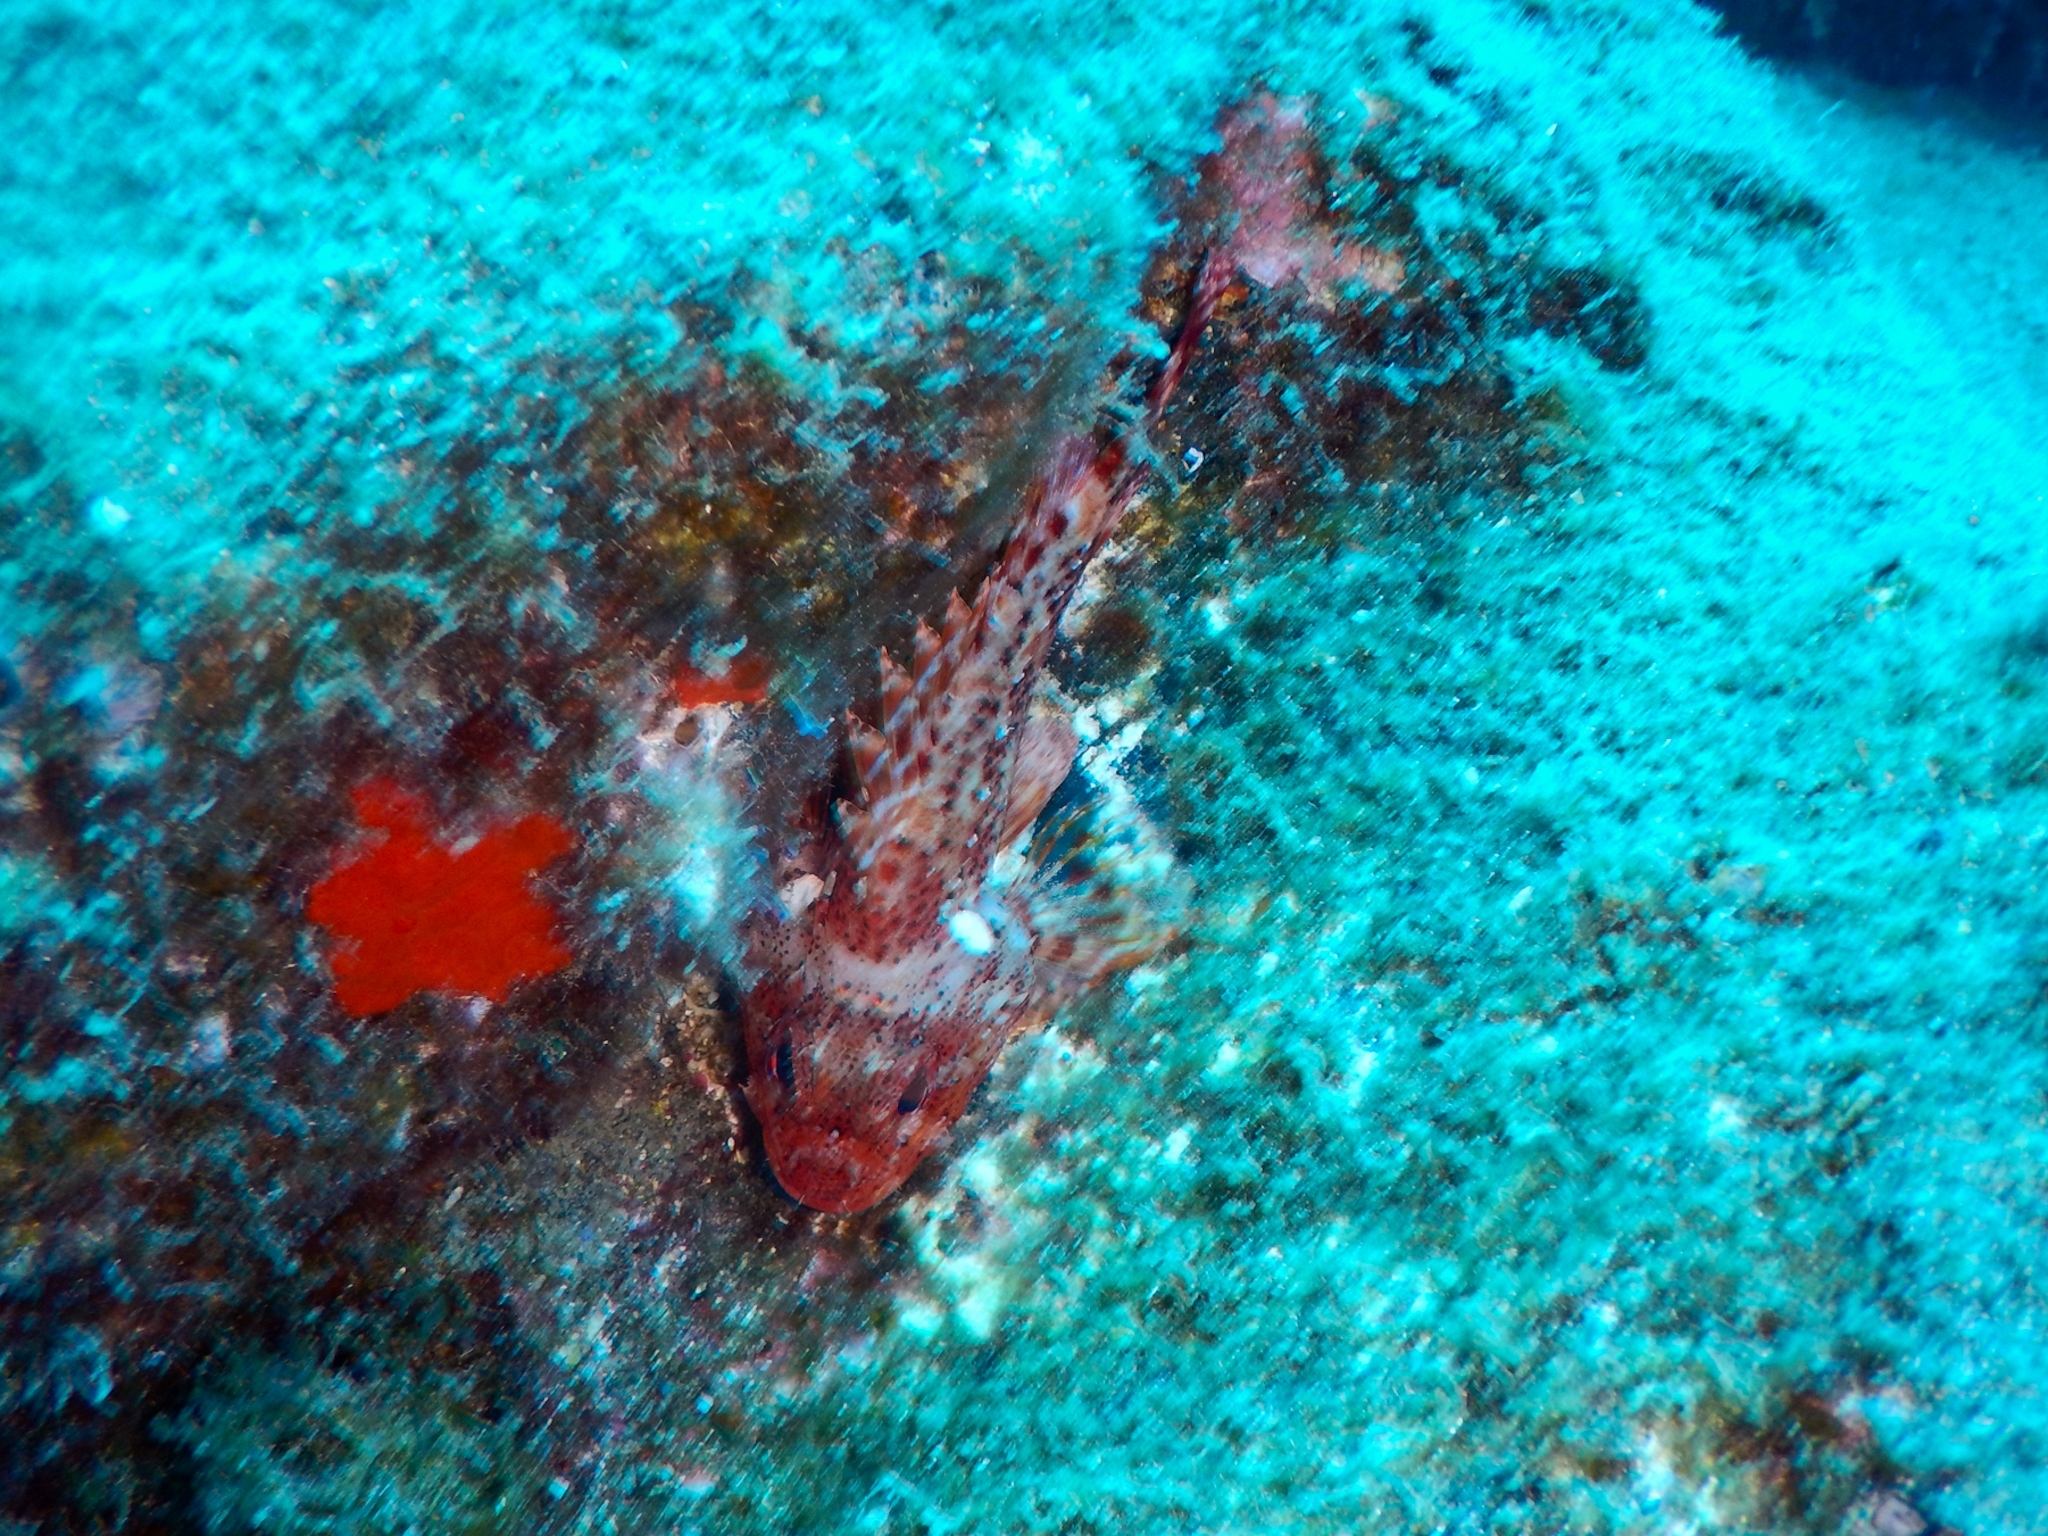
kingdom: Animalia
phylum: Chordata
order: Scorpaeniformes
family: Scorpaenidae
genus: Scorpaena
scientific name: Scorpaena maderensis
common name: Madeira rockfish
